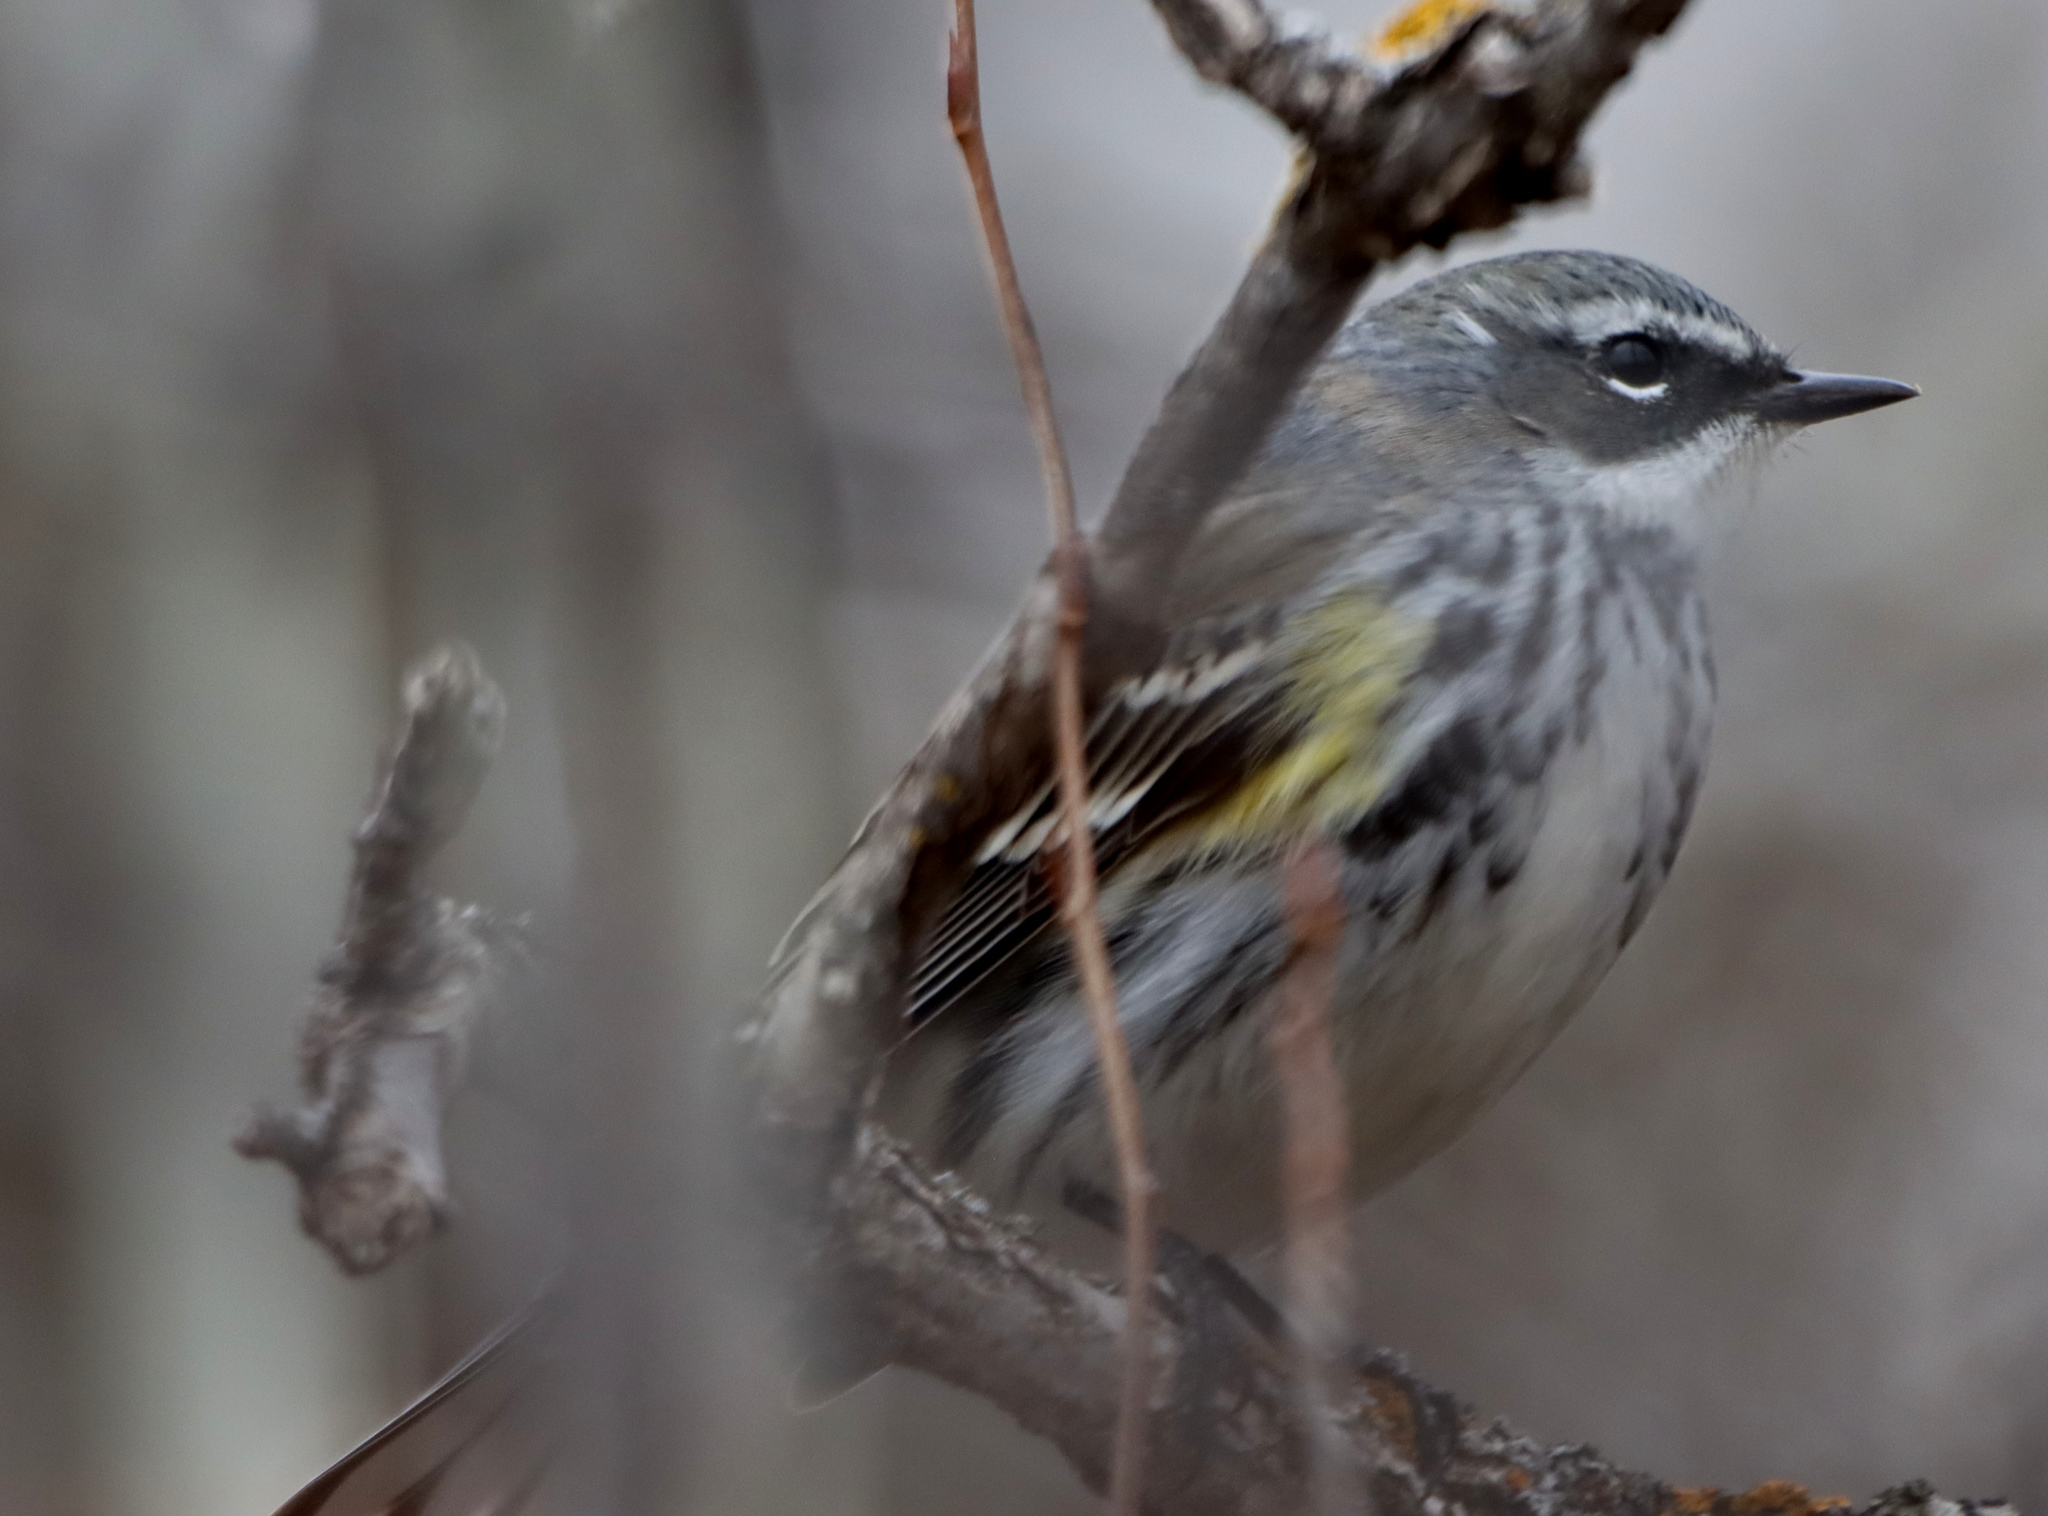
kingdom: Animalia
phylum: Chordata
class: Aves
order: Passeriformes
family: Parulidae
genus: Setophaga
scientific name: Setophaga coronata
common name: Myrtle warbler
